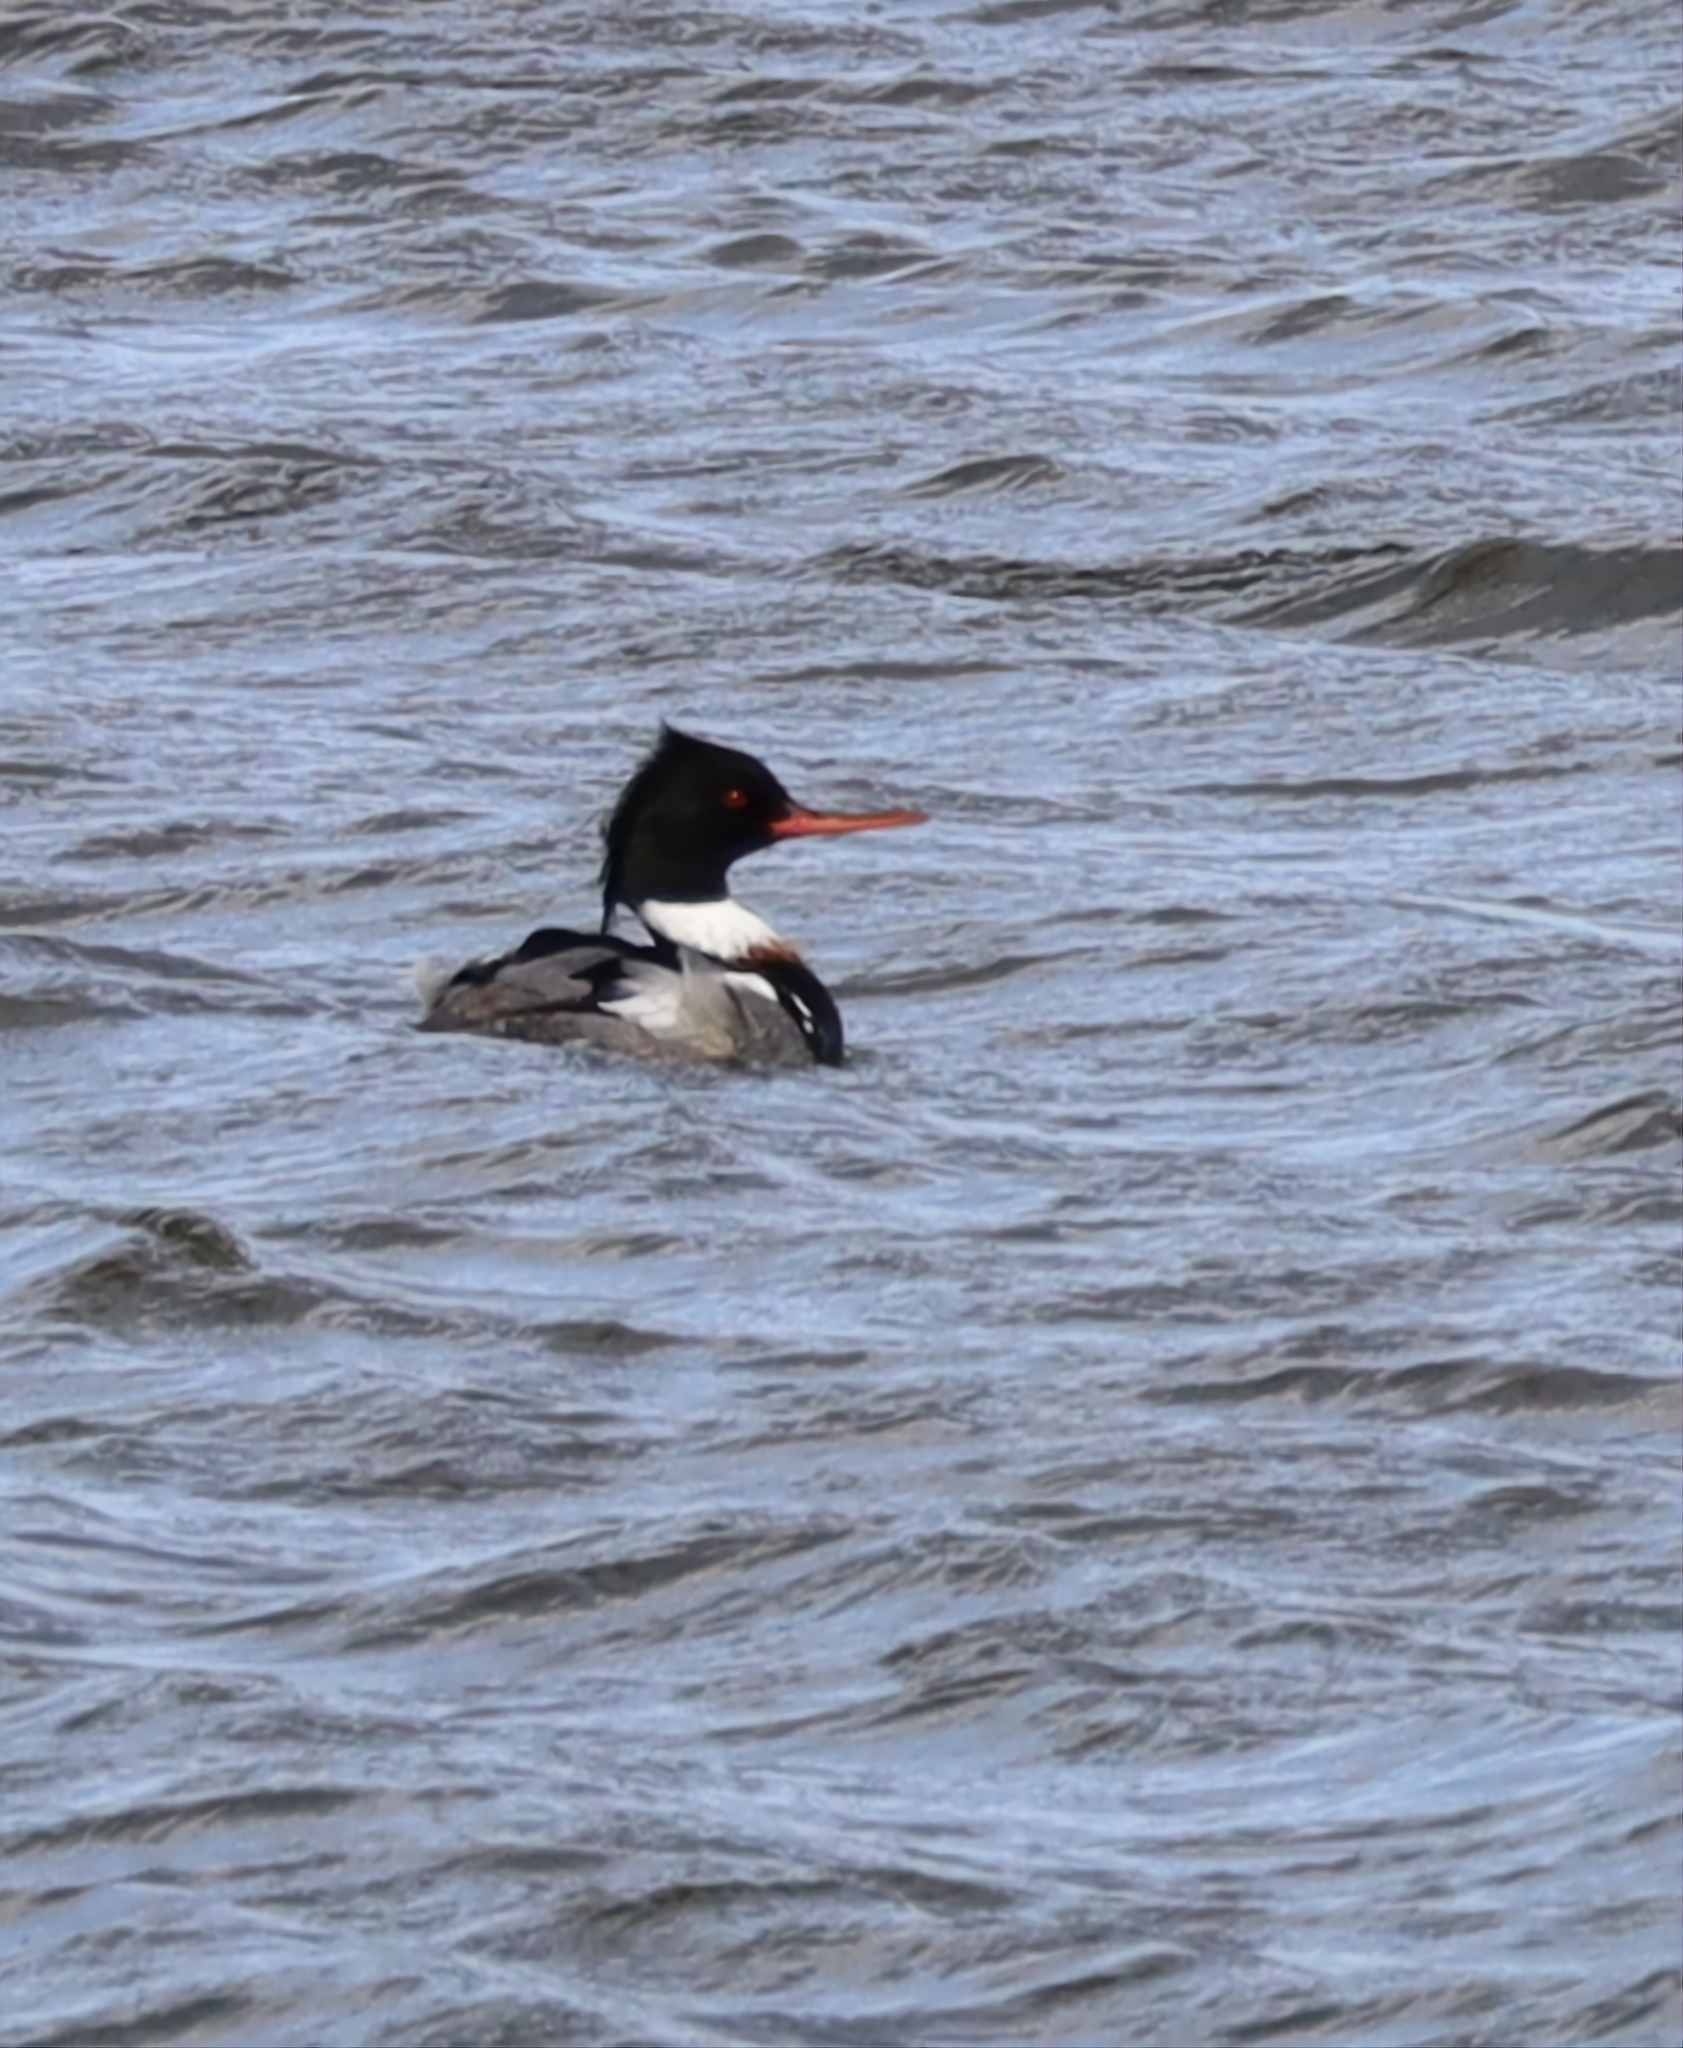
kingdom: Animalia
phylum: Chordata
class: Aves
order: Anseriformes
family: Anatidae
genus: Mergus
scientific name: Mergus serrator
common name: Red-breasted merganser
